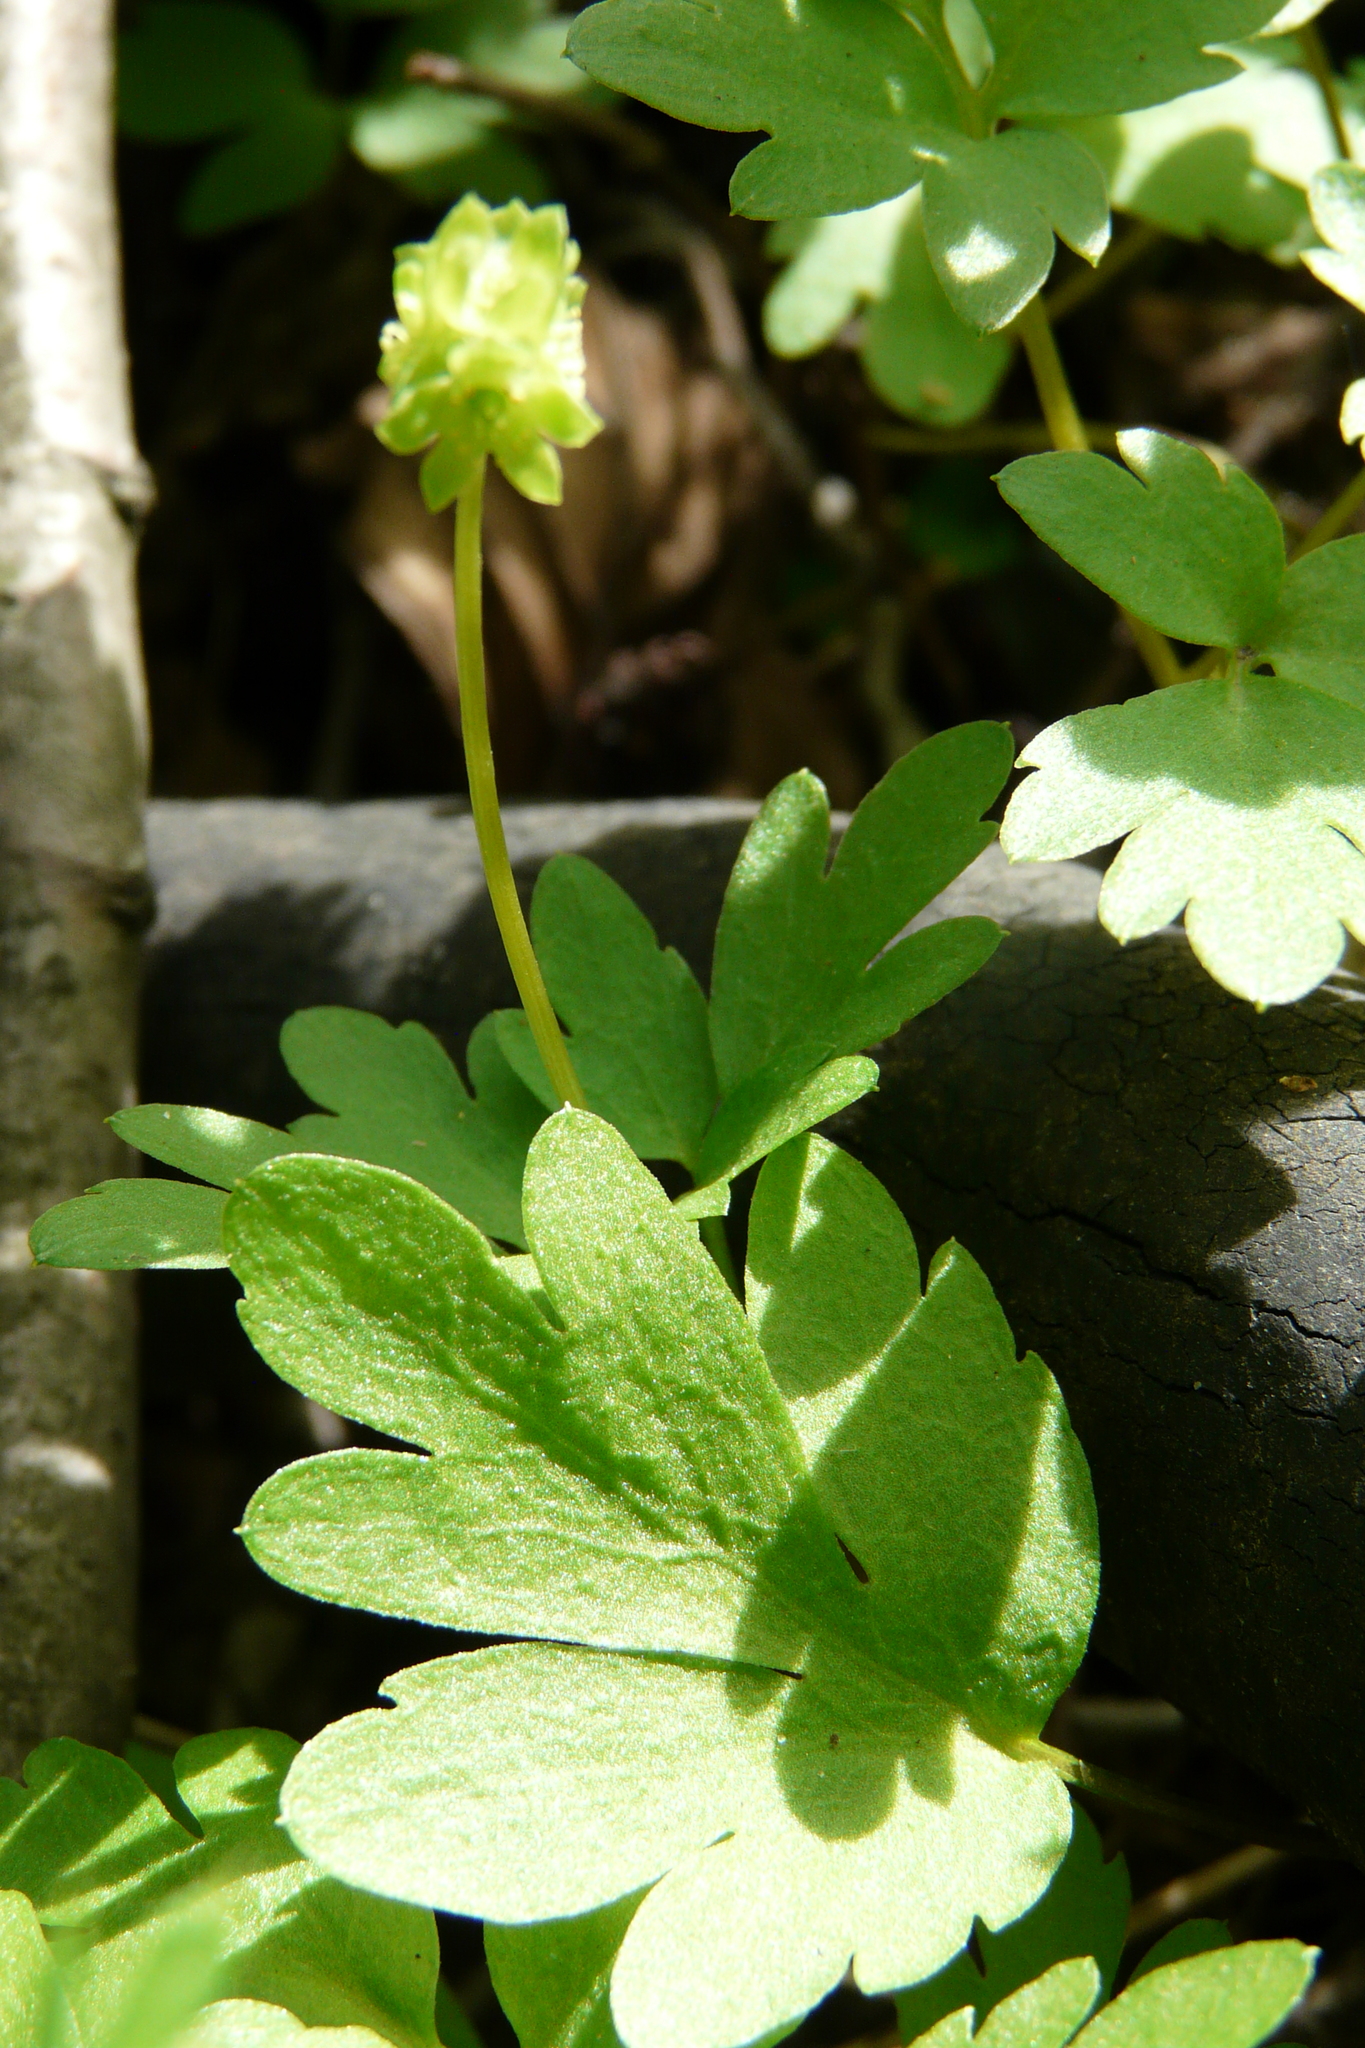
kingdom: Plantae
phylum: Tracheophyta
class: Magnoliopsida
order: Dipsacales
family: Viburnaceae
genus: Adoxa
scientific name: Adoxa moschatellina
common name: Moschatel
